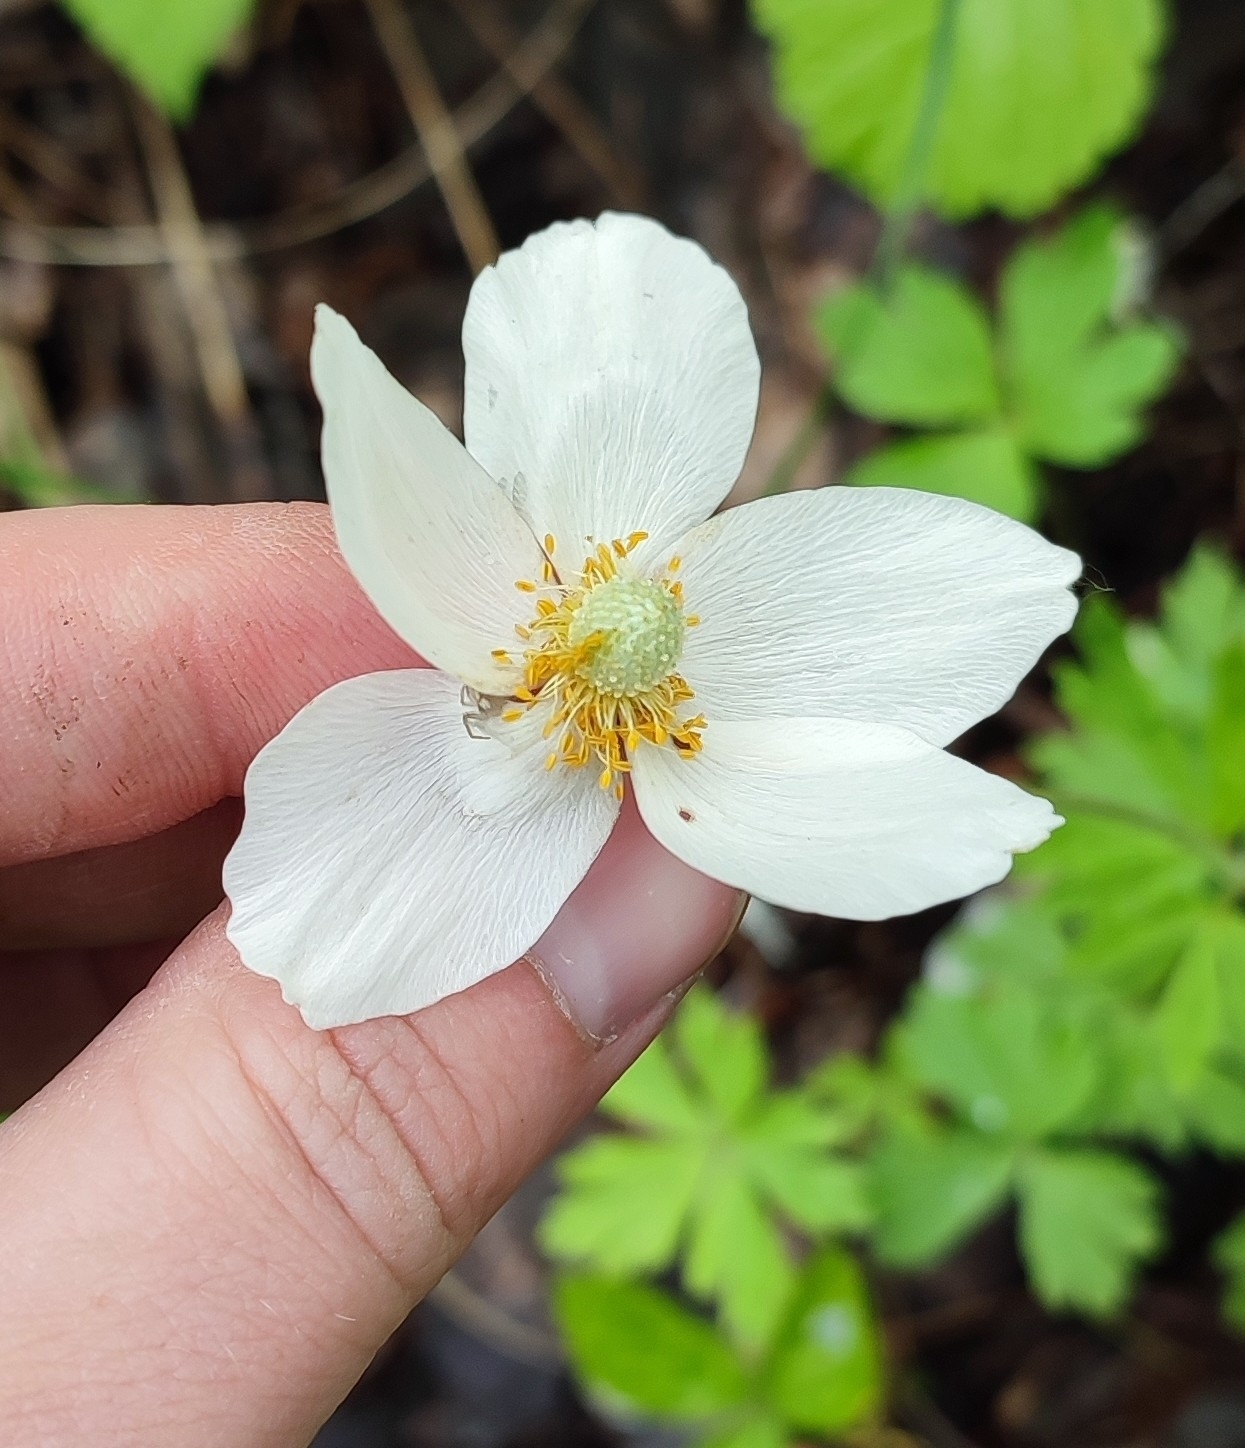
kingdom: Plantae
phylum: Tracheophyta
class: Magnoliopsida
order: Ranunculales
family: Ranunculaceae
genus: Anemone
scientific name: Anemone sylvestris
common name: Snowdrop anemone
